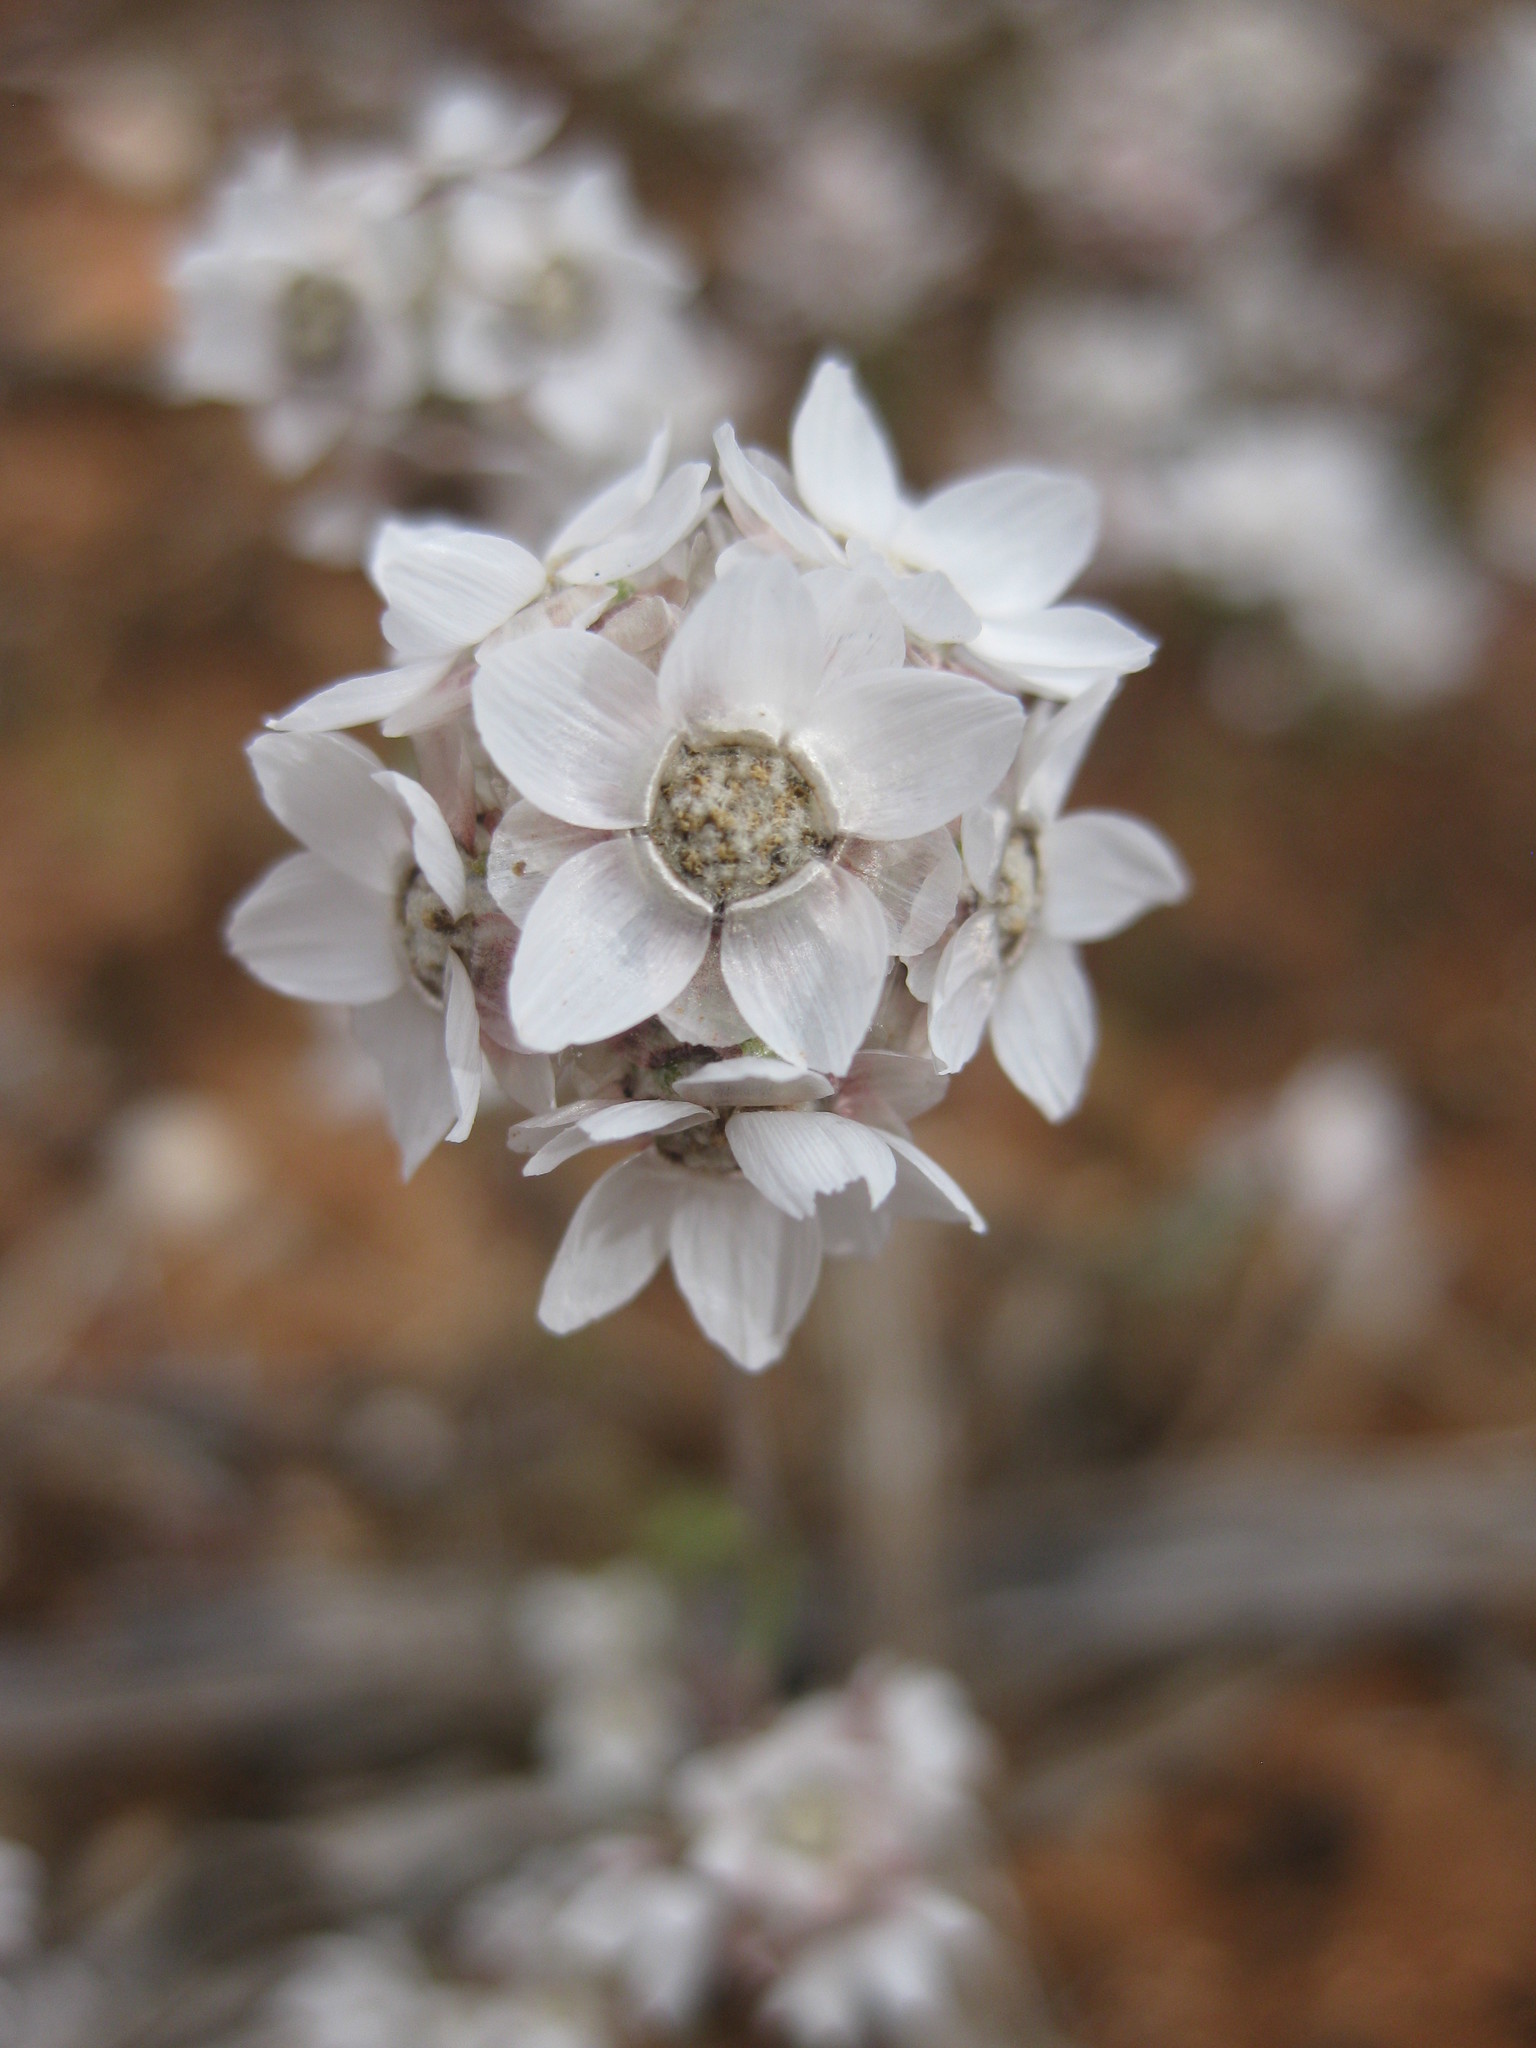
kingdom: Plantae
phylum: Tracheophyta
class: Magnoliopsida
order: Asterales
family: Asteraceae
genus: Cephalipterum
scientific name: Cephalipterum drummondii
